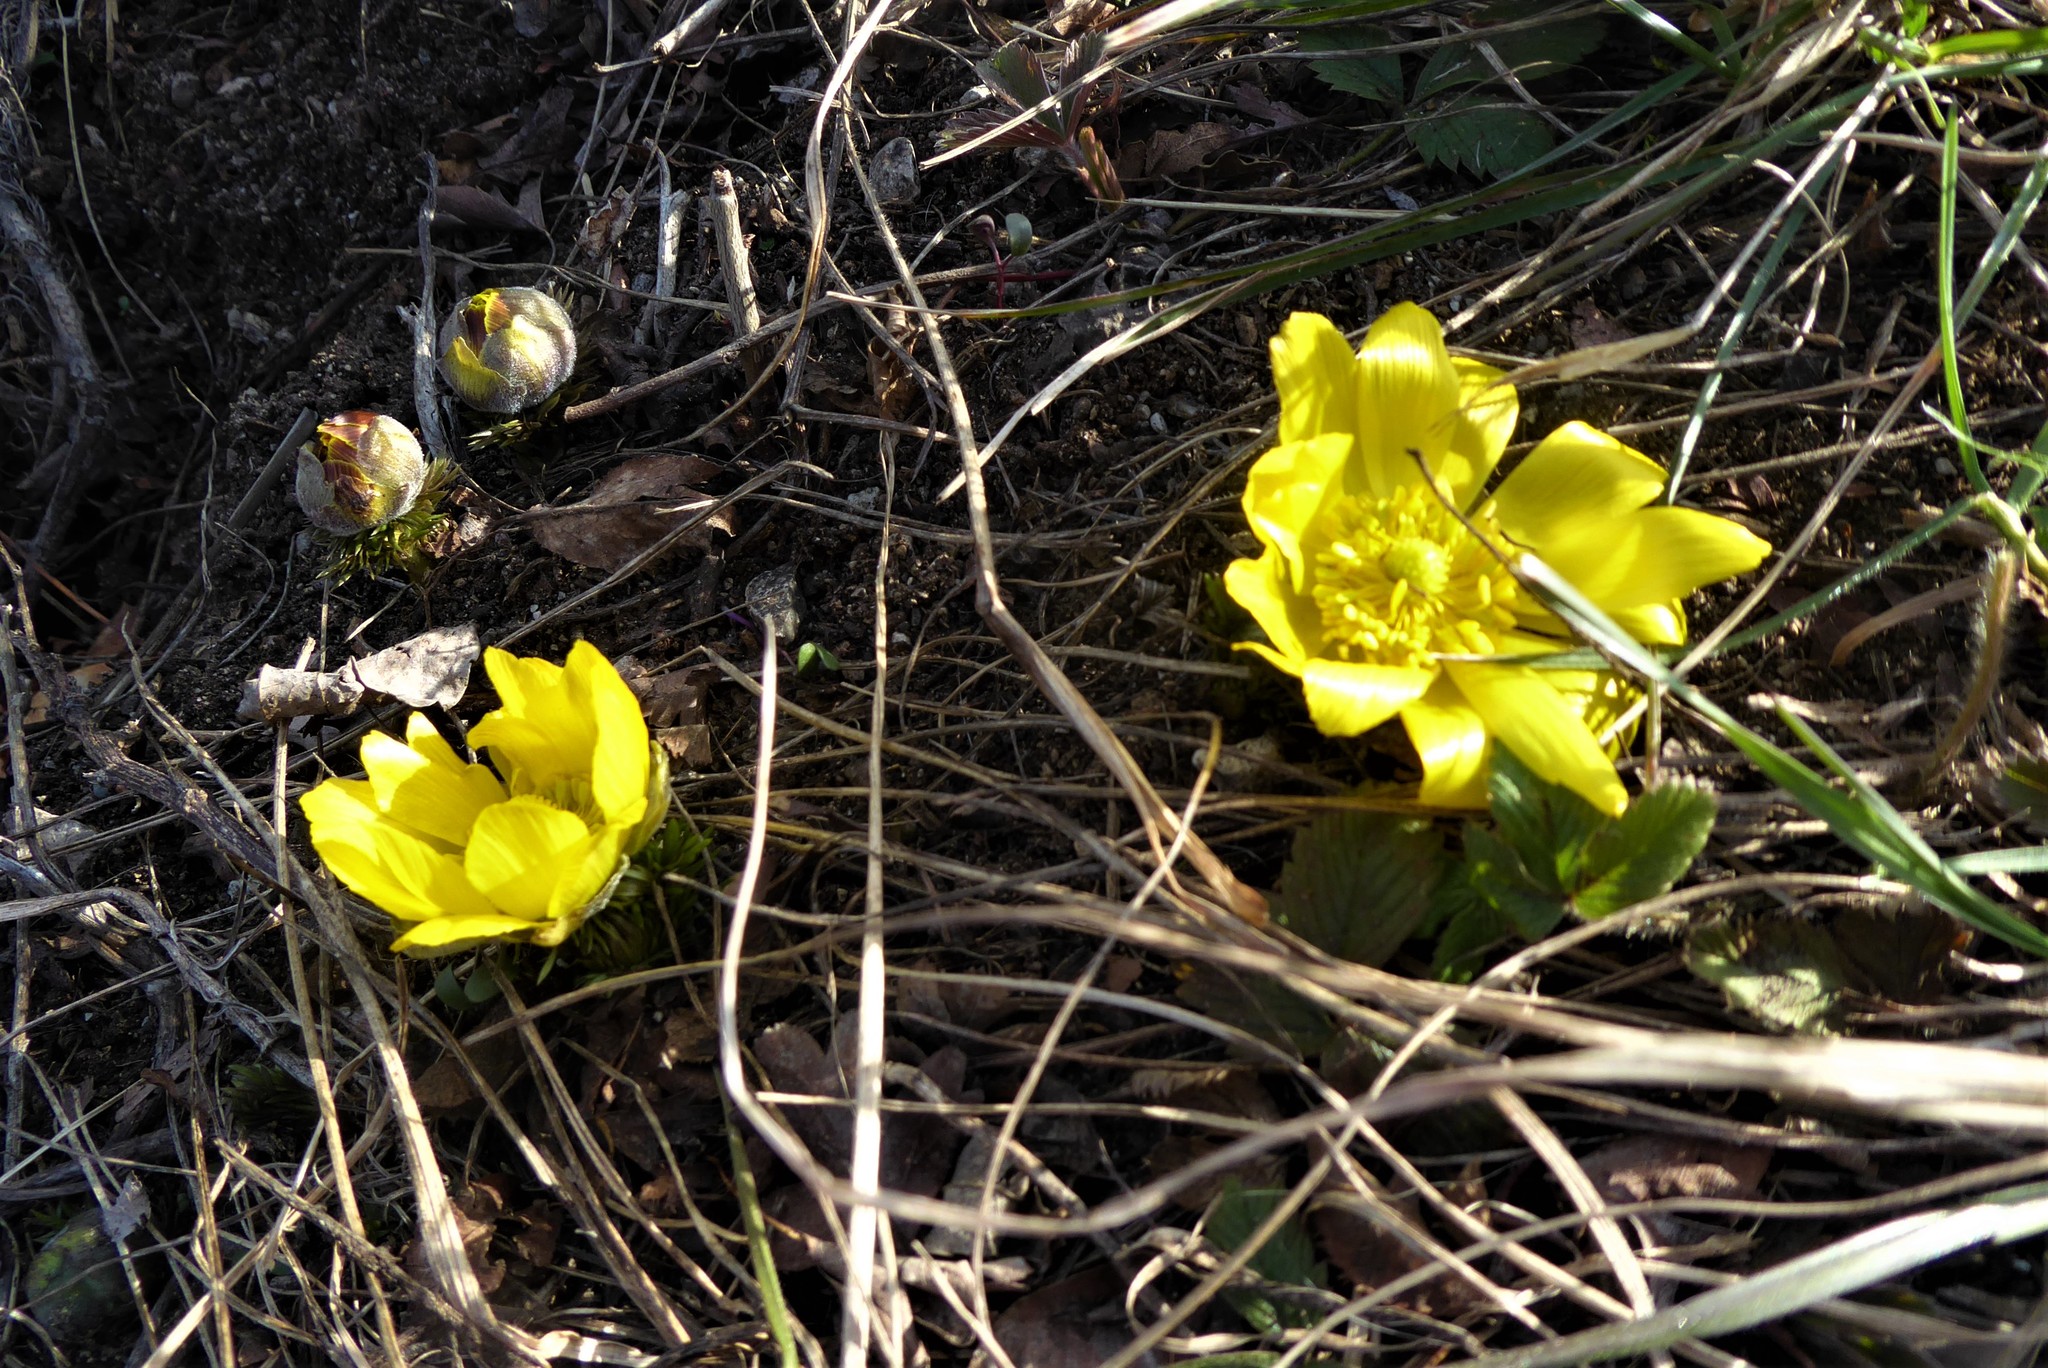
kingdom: Plantae
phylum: Tracheophyta
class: Magnoliopsida
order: Ranunculales
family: Ranunculaceae
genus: Adonis
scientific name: Adonis vernalis
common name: Yellow pheasants-eye
